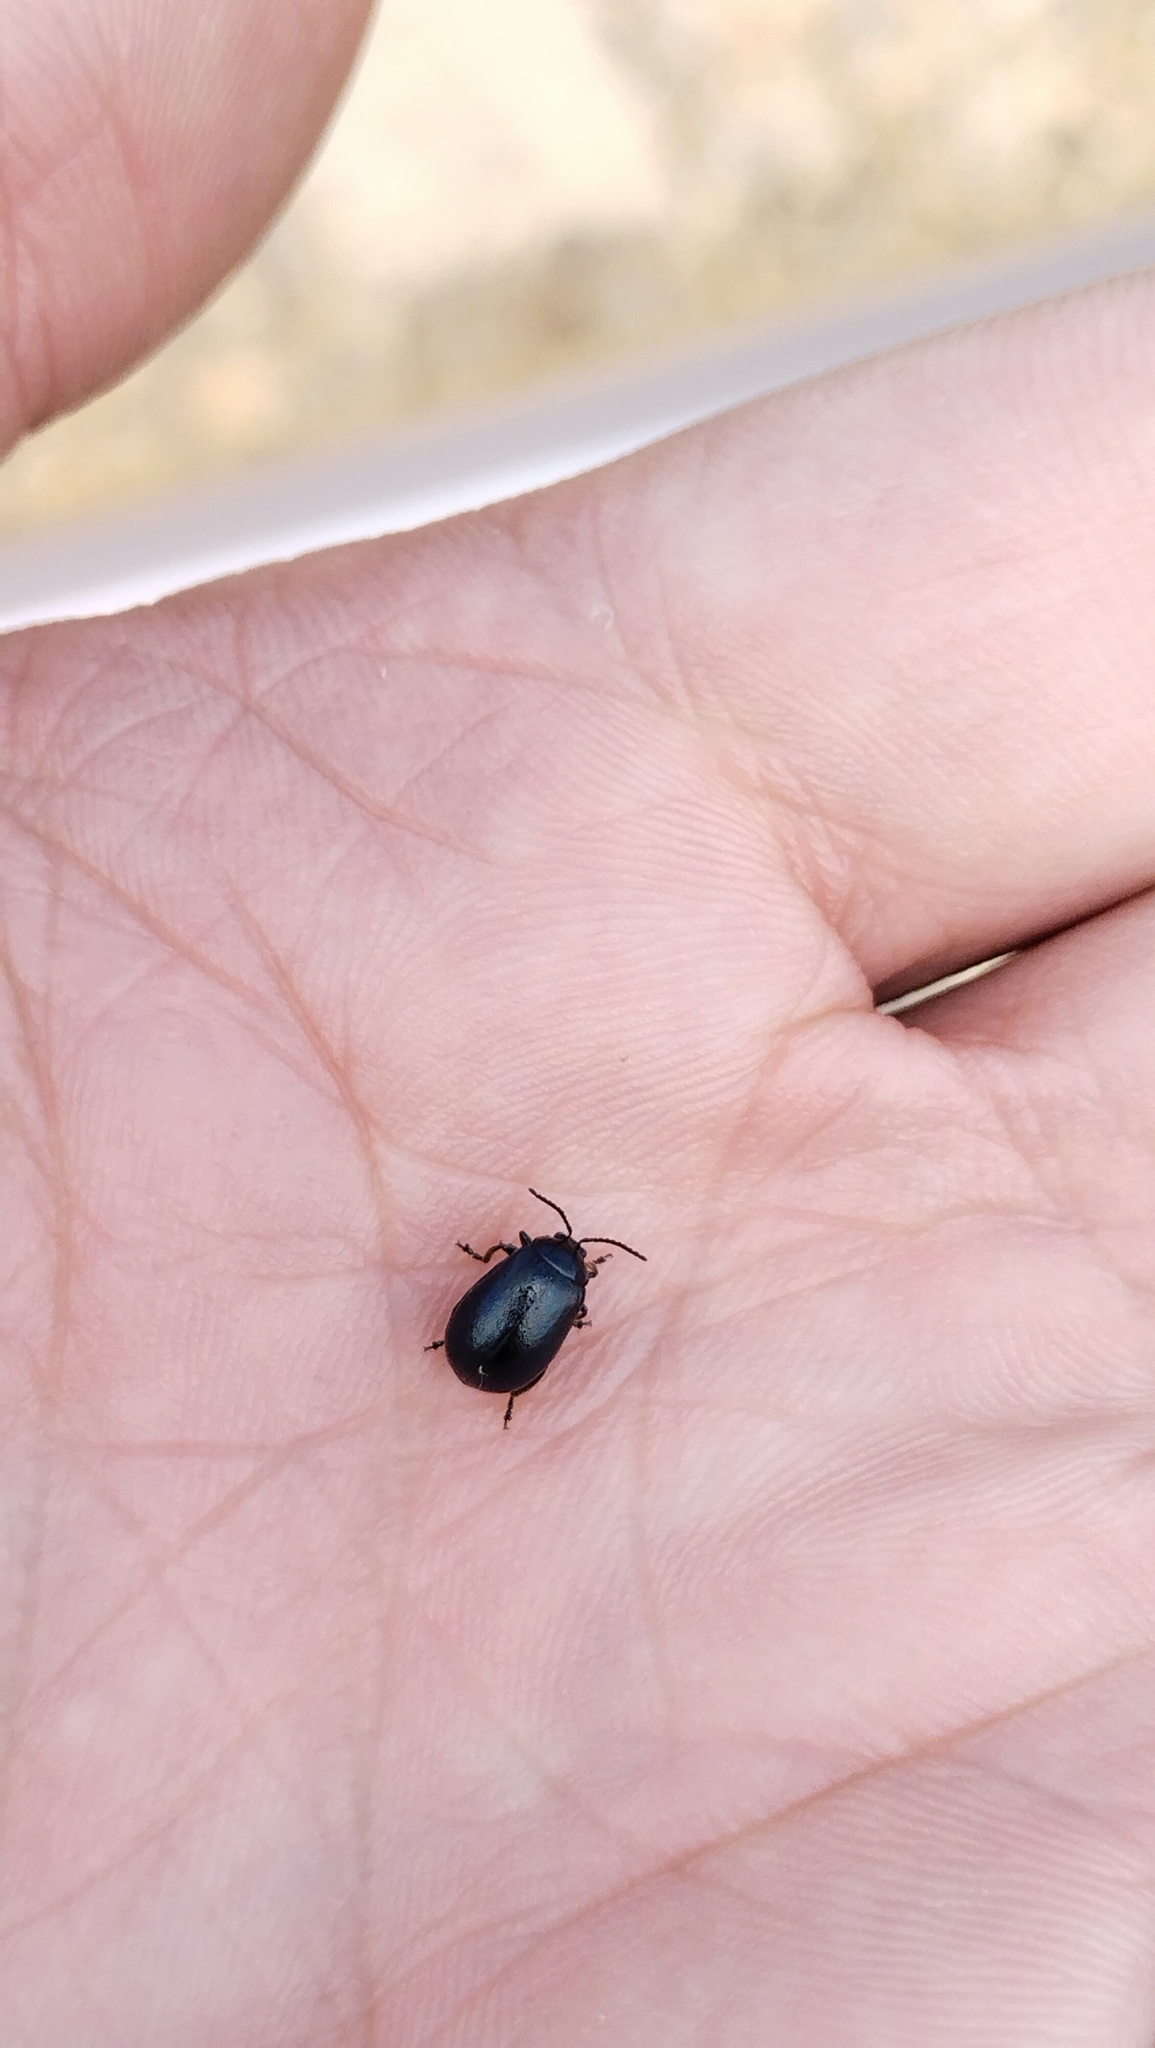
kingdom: Animalia
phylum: Arthropoda
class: Insecta
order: Coleoptera
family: Chrysomelidae
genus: Agelastica
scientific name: Agelastica coerulea
